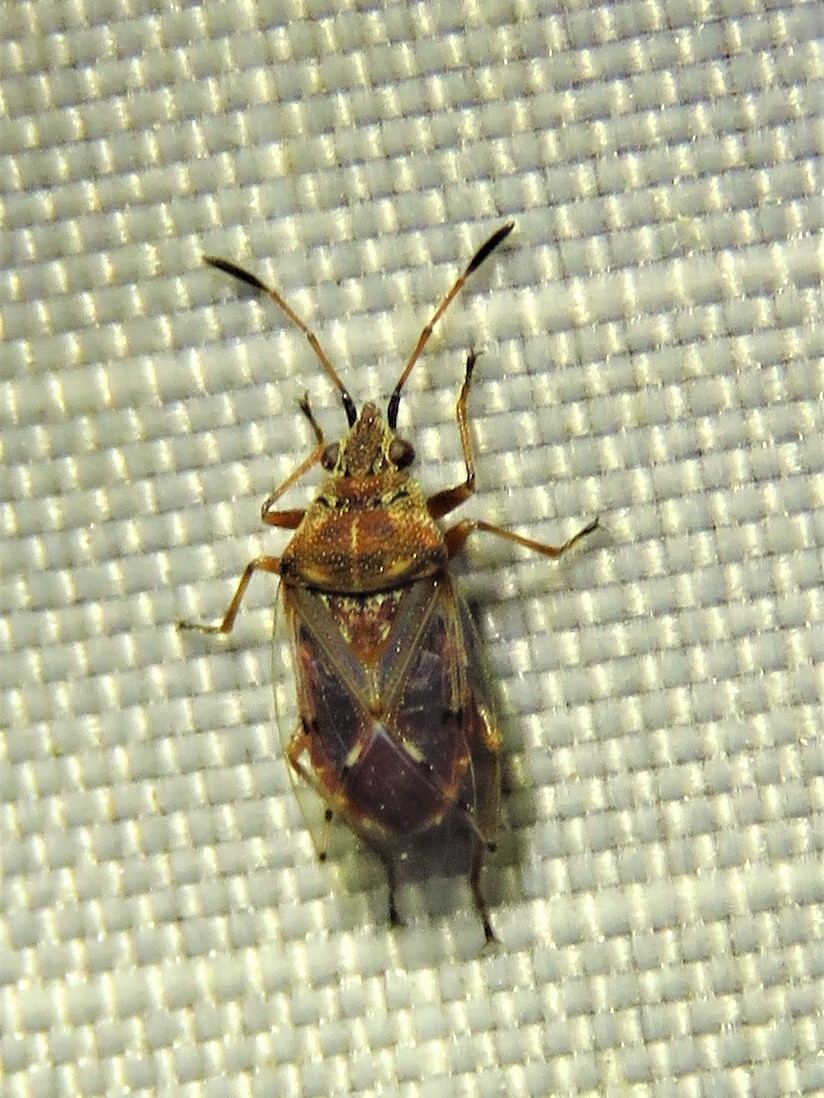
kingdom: Animalia
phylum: Arthropoda
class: Insecta
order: Hemiptera
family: Lygaeidae
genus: Kleidocerys
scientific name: Kleidocerys resedae
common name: Birch catkin bug
